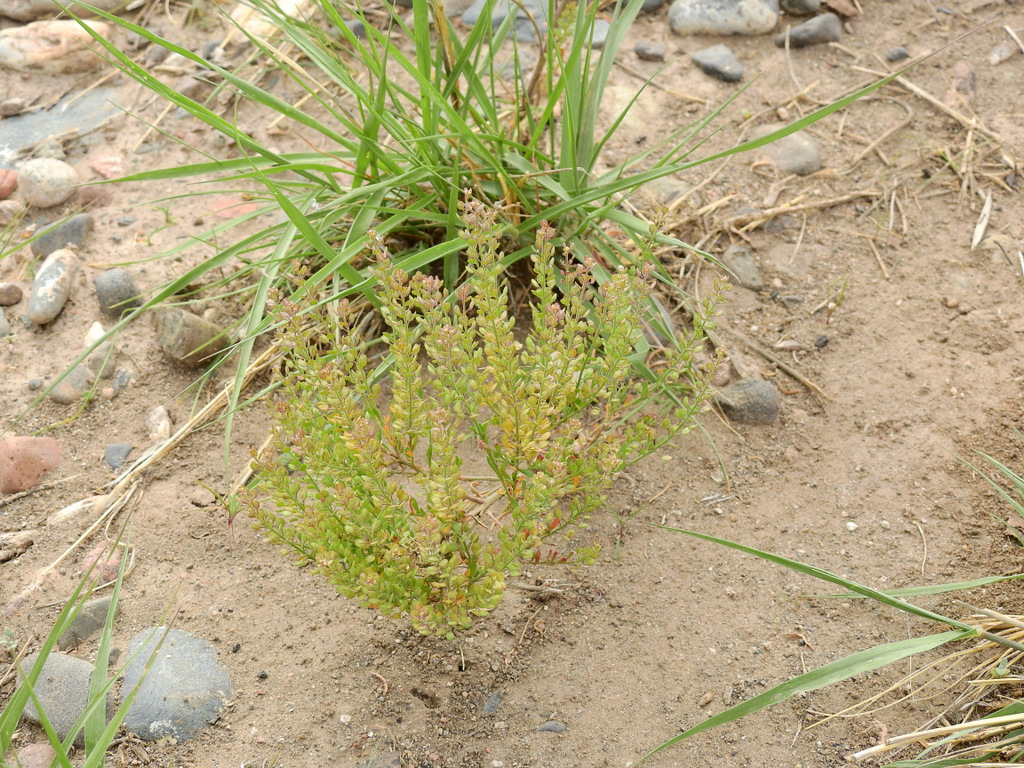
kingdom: Plantae
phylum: Tracheophyta
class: Magnoliopsida
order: Brassicales
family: Brassicaceae
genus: Lepidium
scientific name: Lepidium bonariense
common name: Argentine pepperwort
